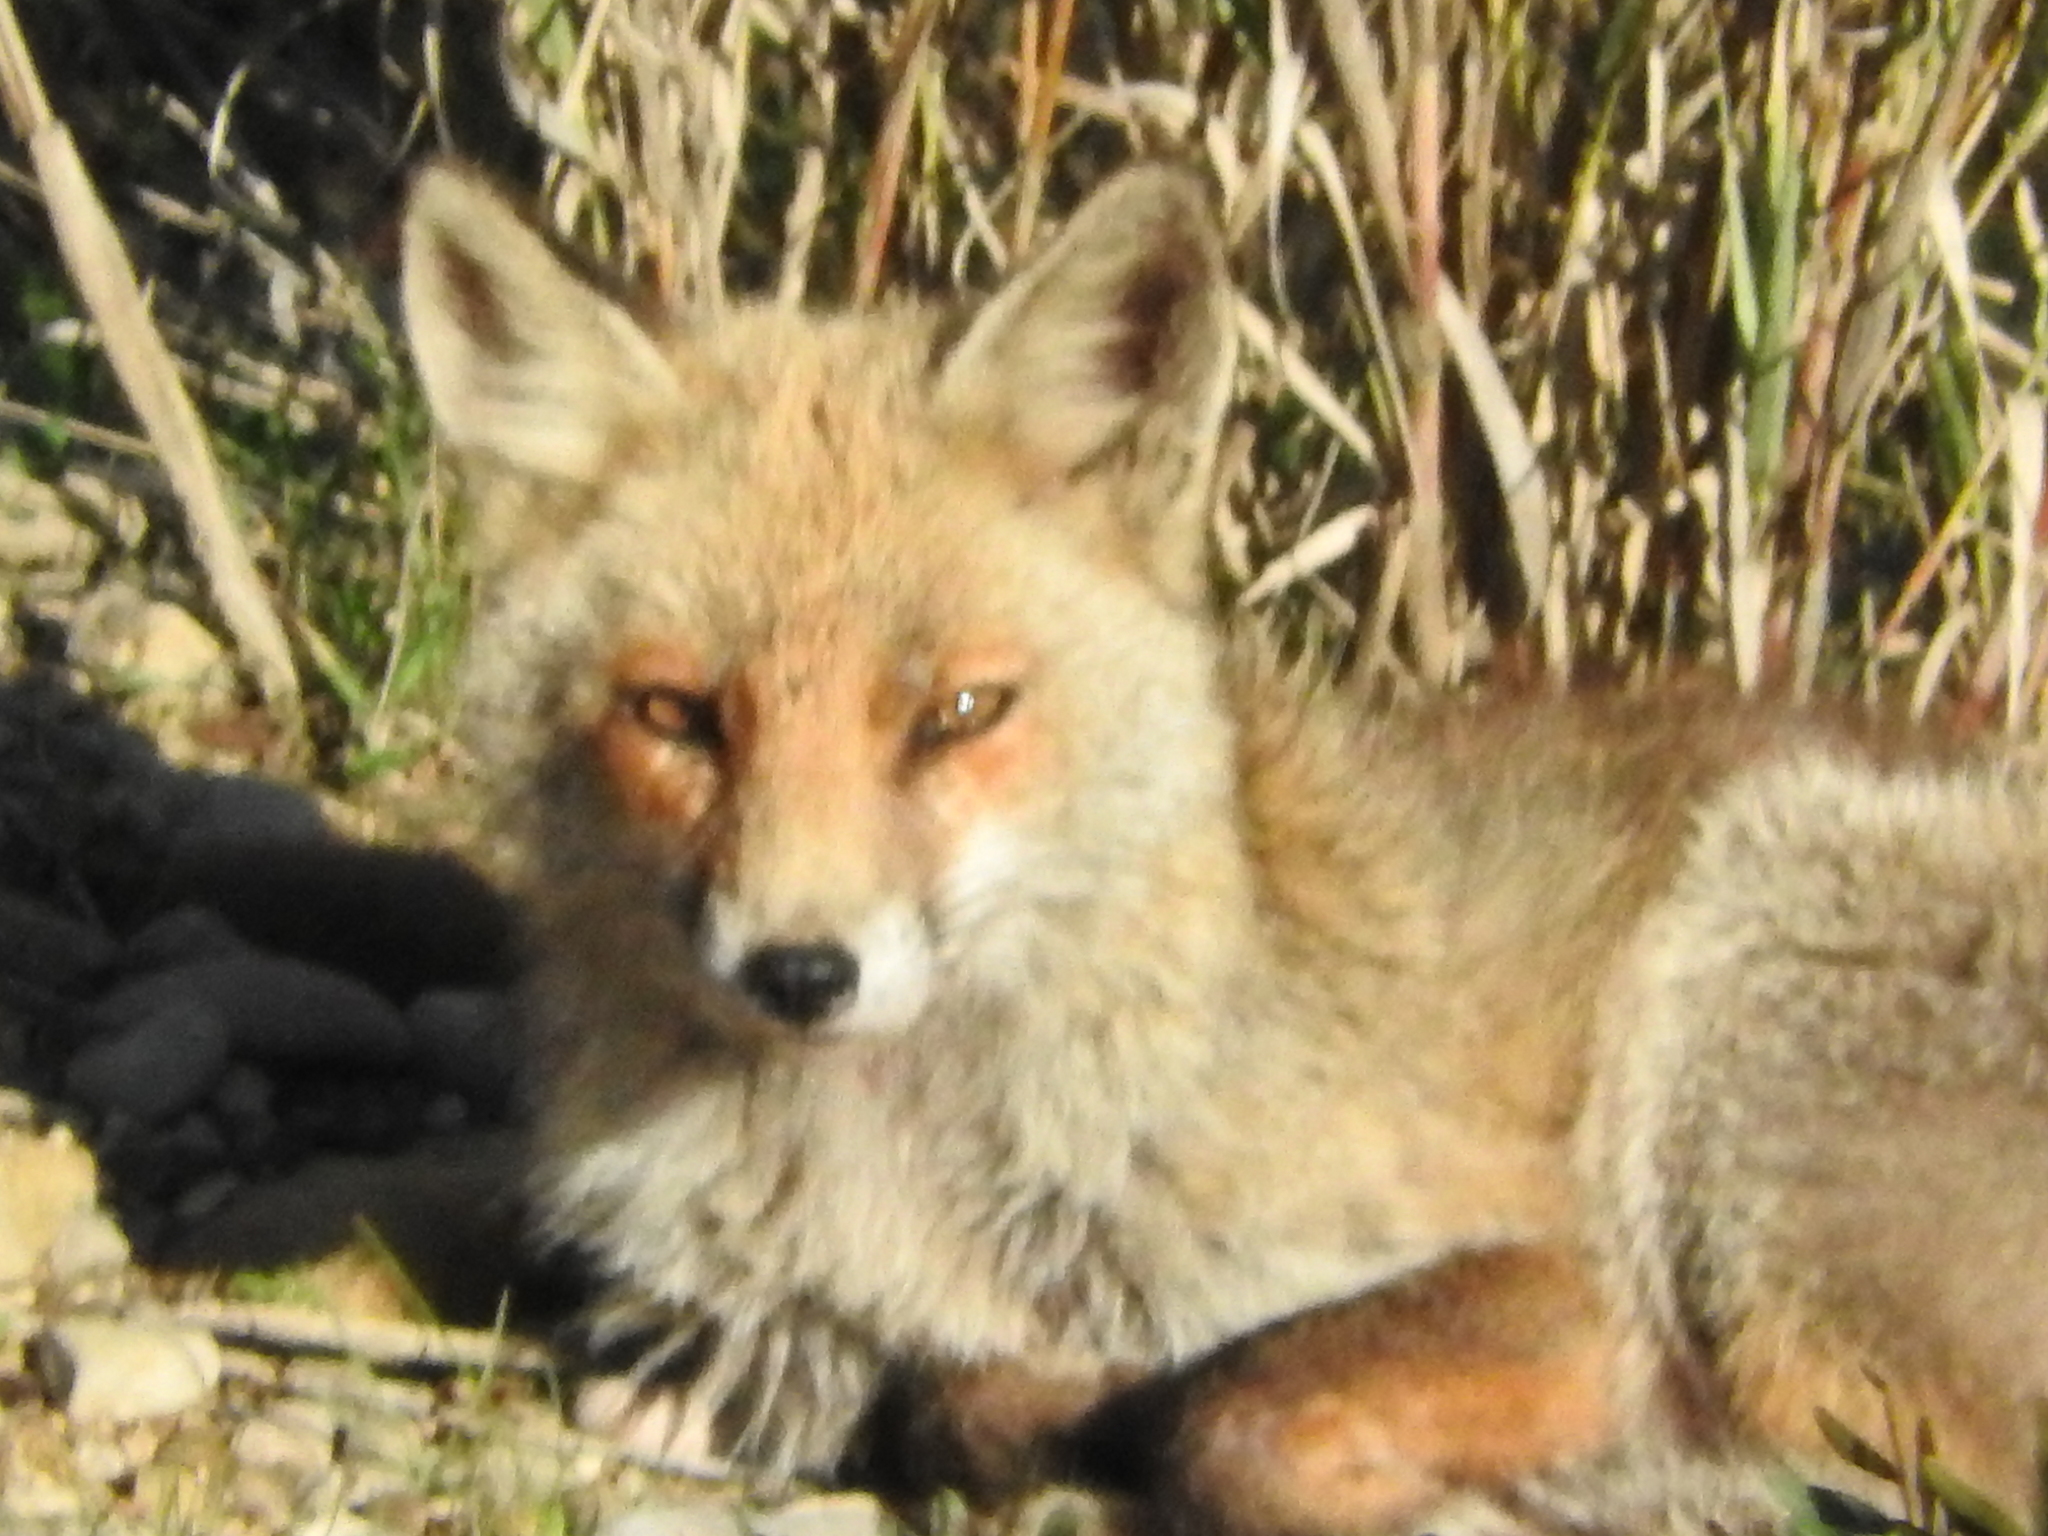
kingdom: Animalia
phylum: Chordata
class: Mammalia
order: Carnivora
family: Canidae
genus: Vulpes
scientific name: Vulpes vulpes
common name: Red fox
